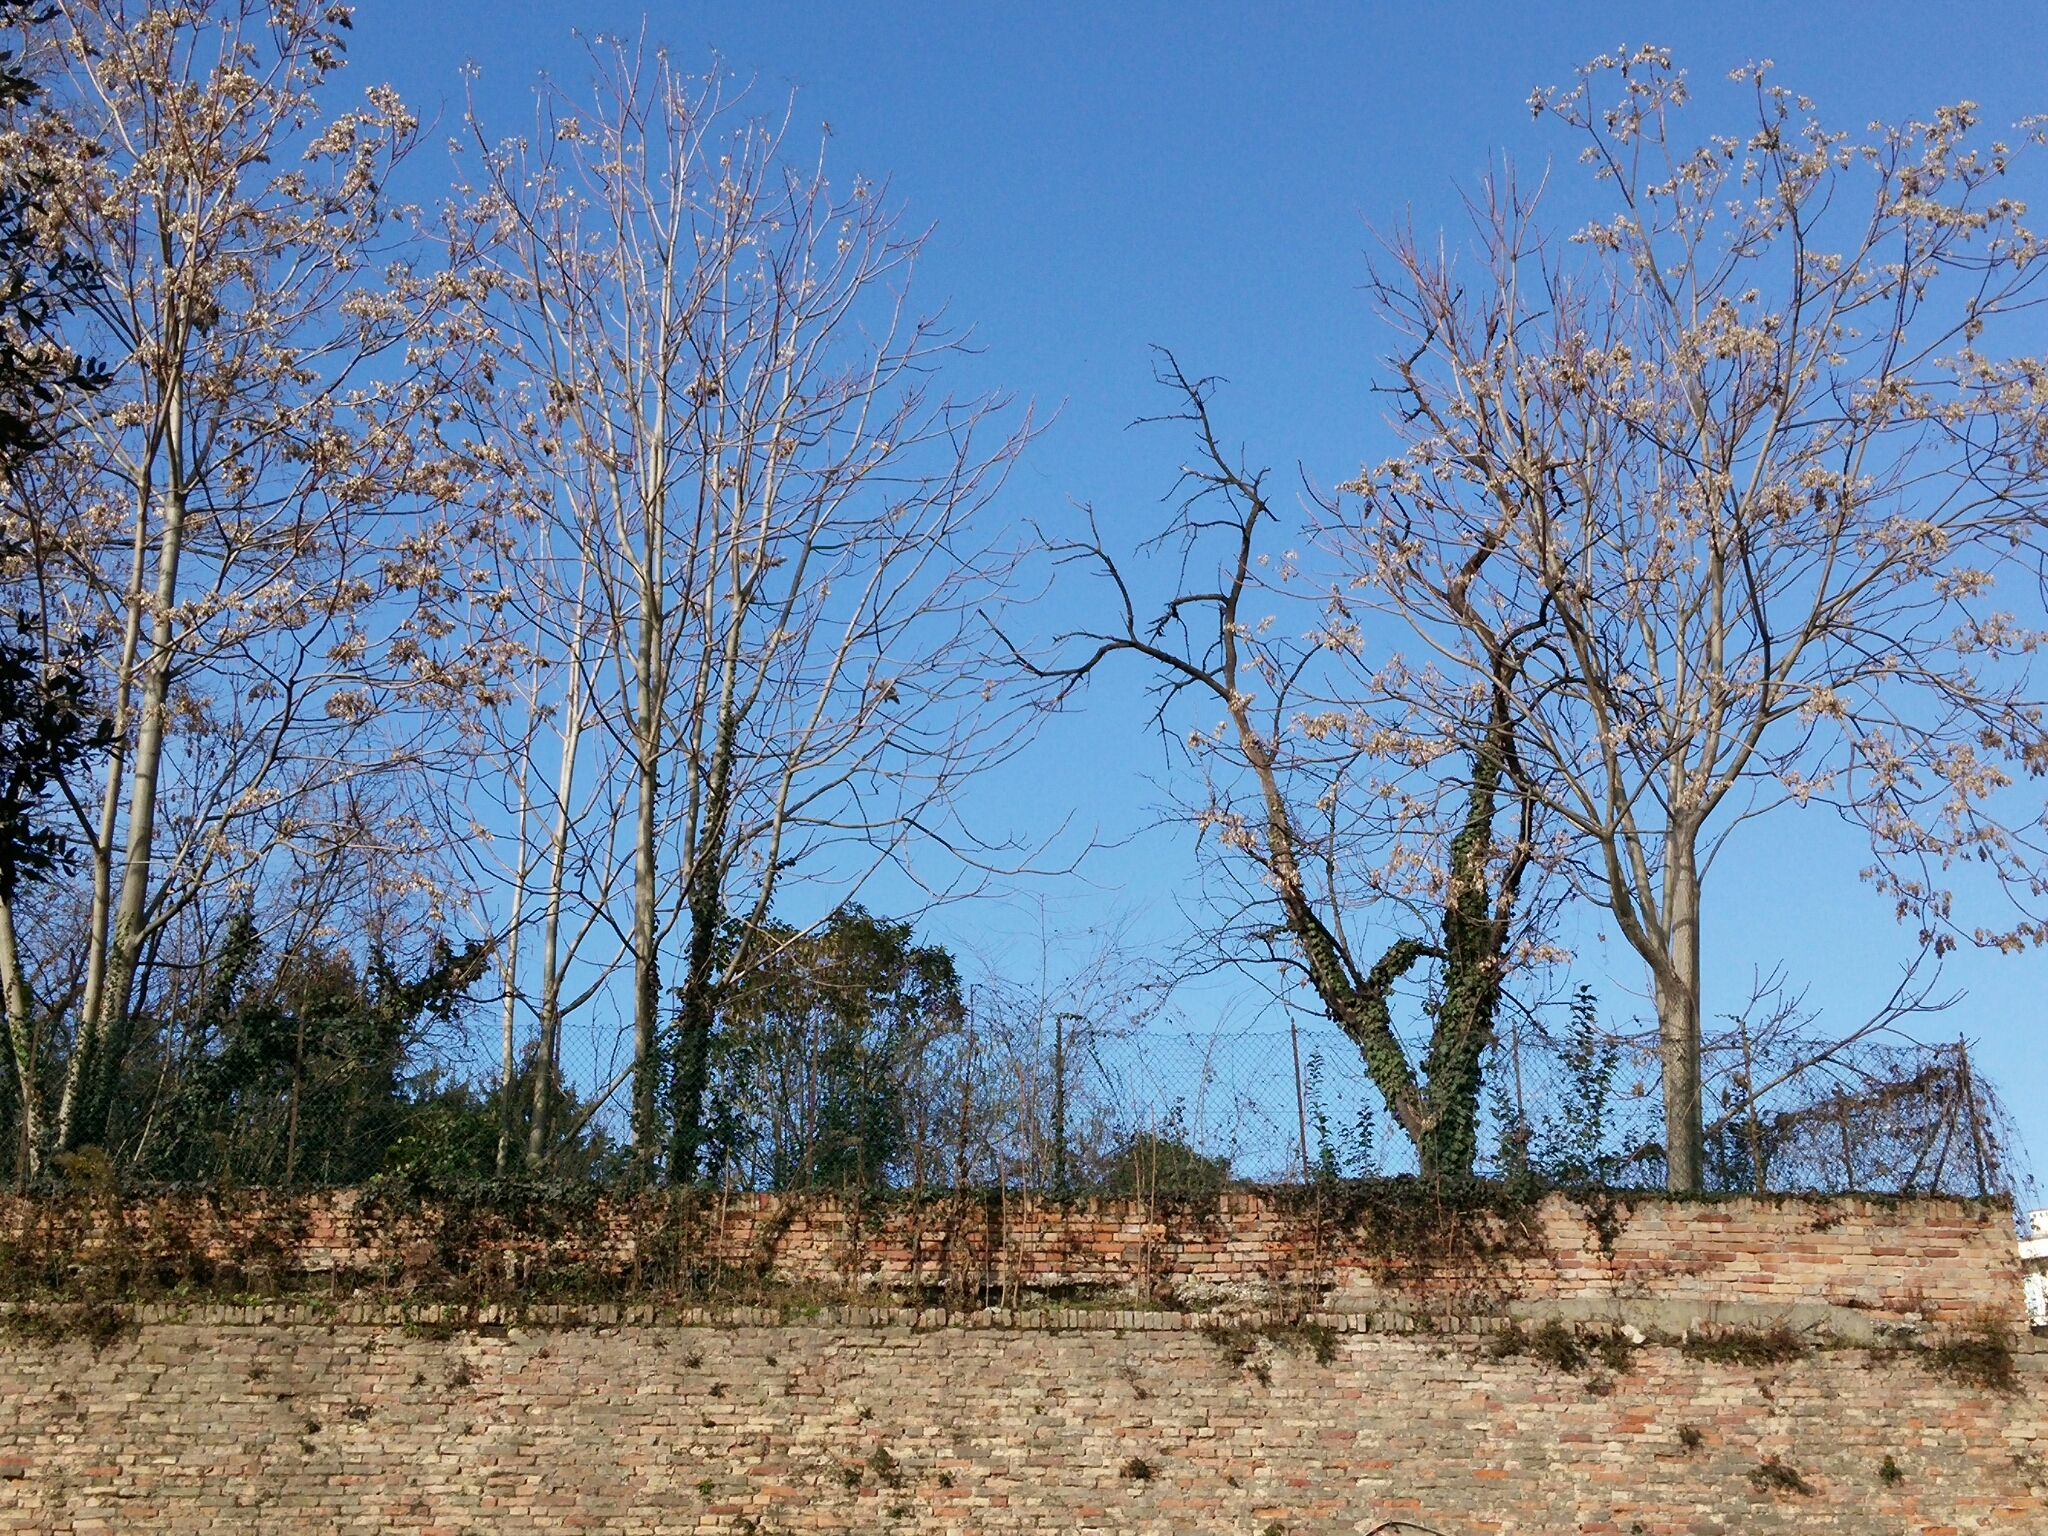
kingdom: Plantae
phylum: Tracheophyta
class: Magnoliopsida
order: Apiales
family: Araliaceae
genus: Hedera
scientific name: Hedera helix
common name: Ivy
